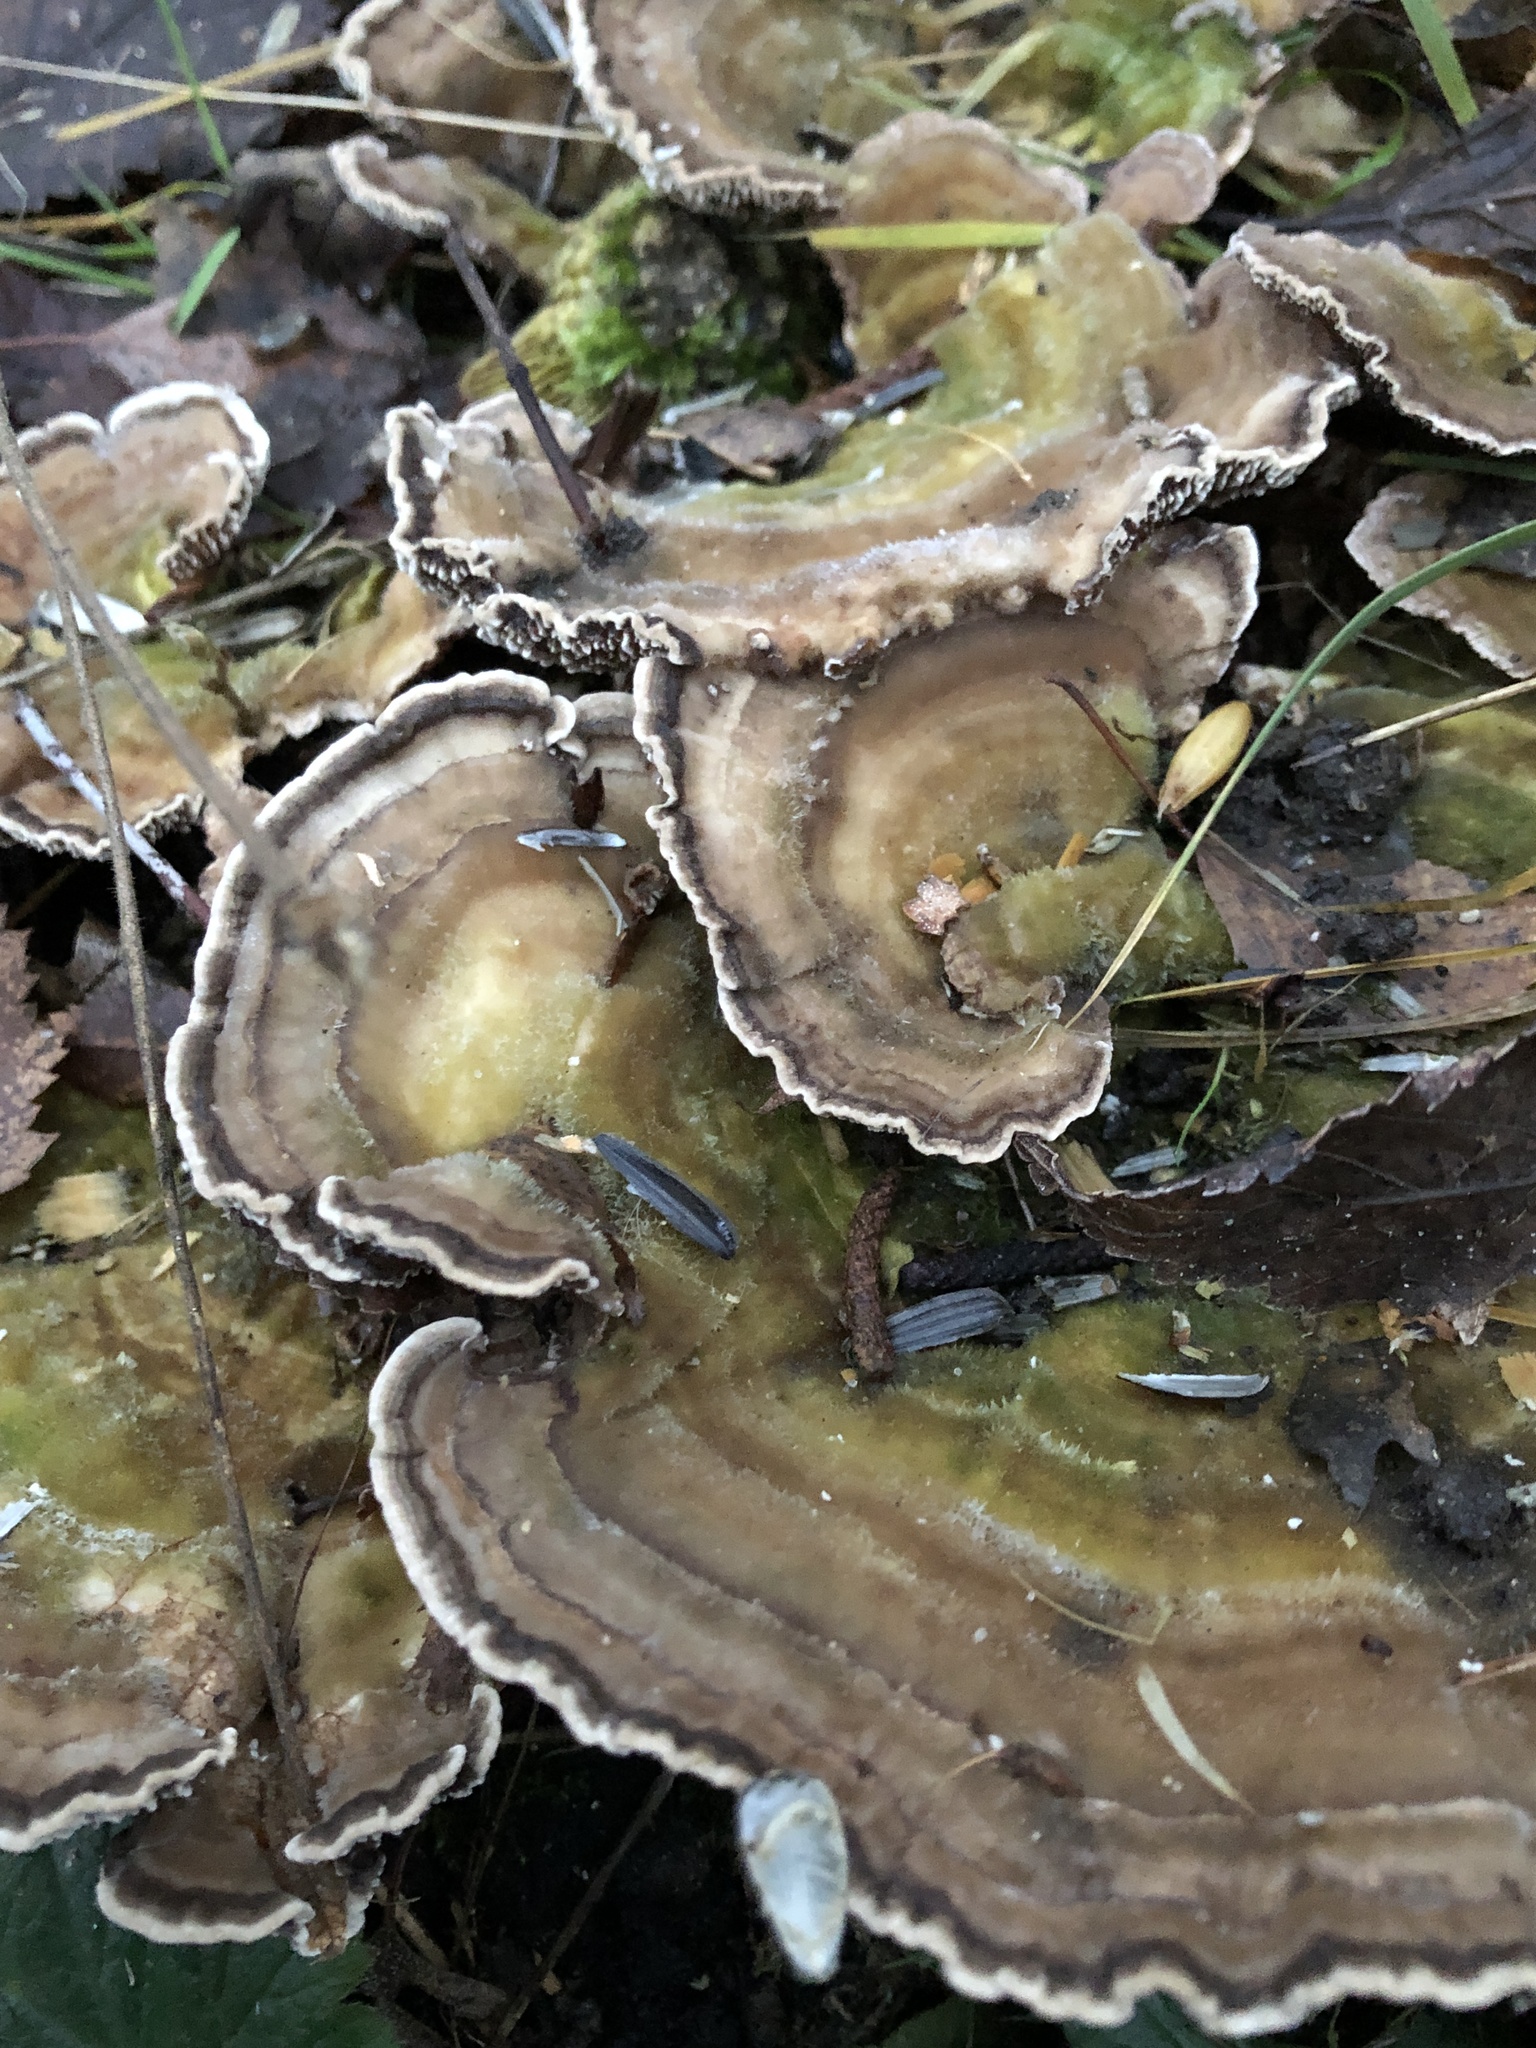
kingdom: Fungi
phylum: Basidiomycota
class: Agaricomycetes
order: Polyporales
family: Polyporaceae
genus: Trametes
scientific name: Trametes versicolor
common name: Turkeytail
